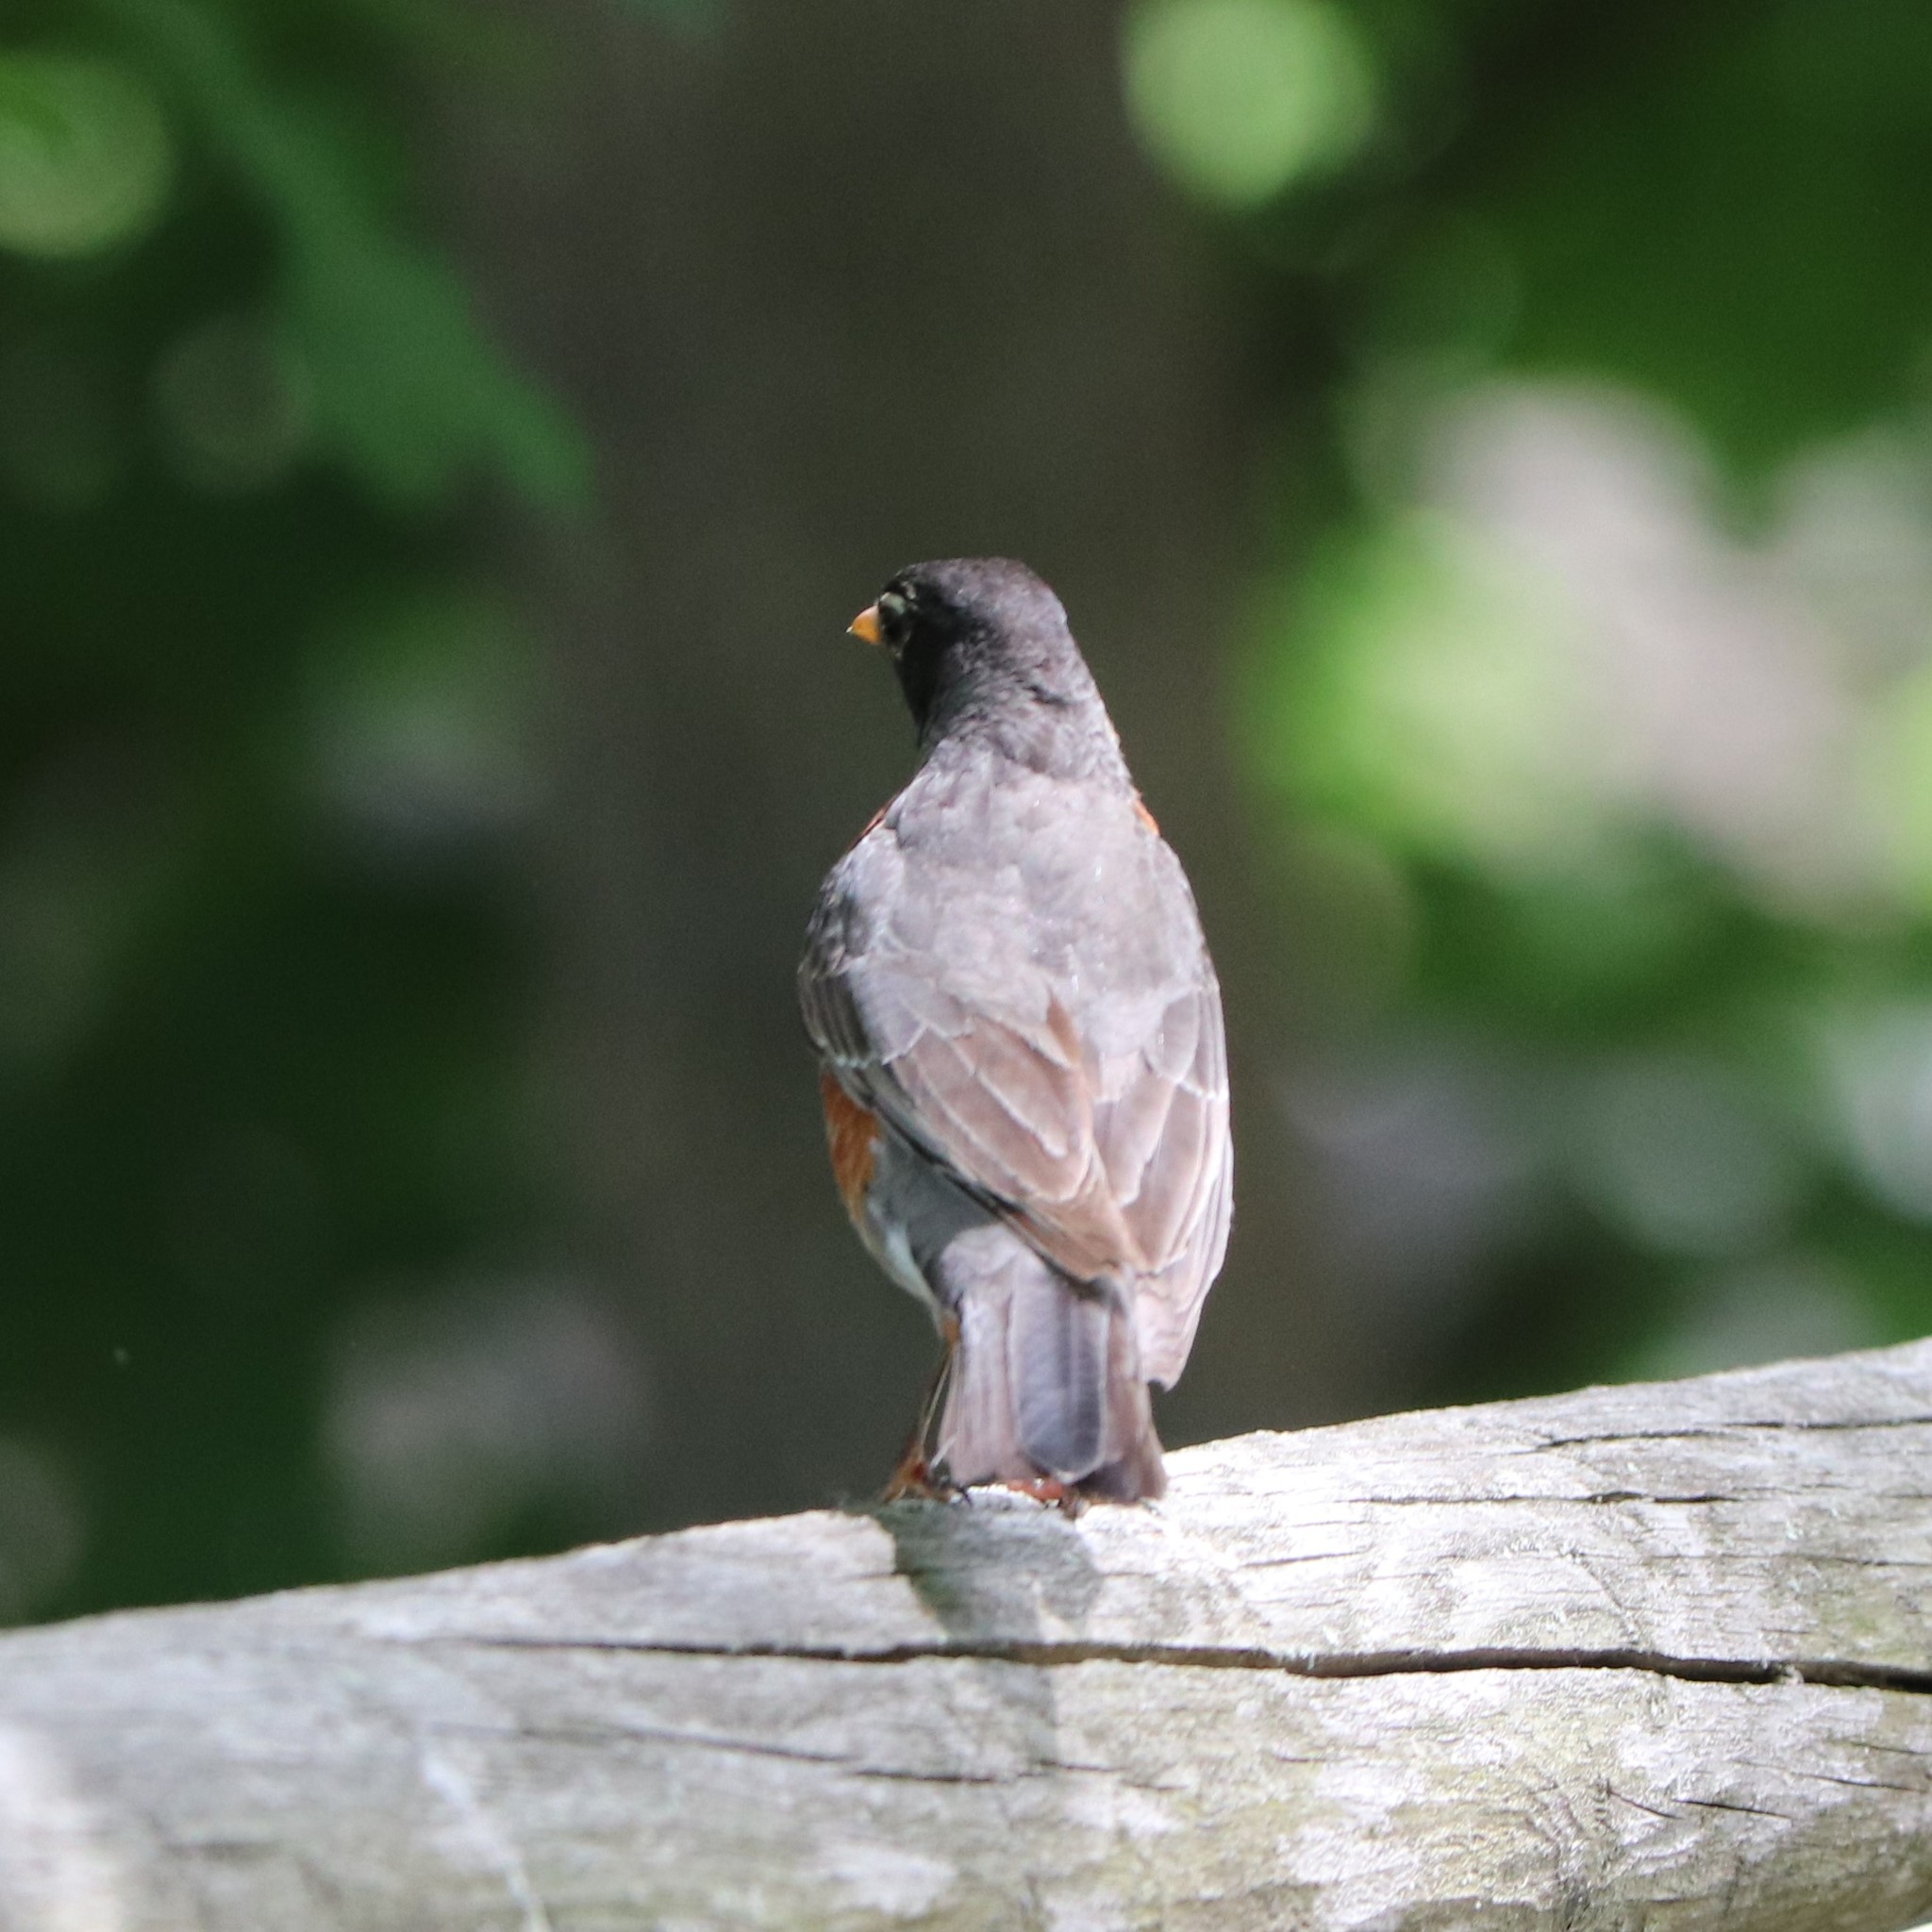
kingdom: Animalia
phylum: Chordata
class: Aves
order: Passeriformes
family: Turdidae
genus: Turdus
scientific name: Turdus migratorius
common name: American robin
